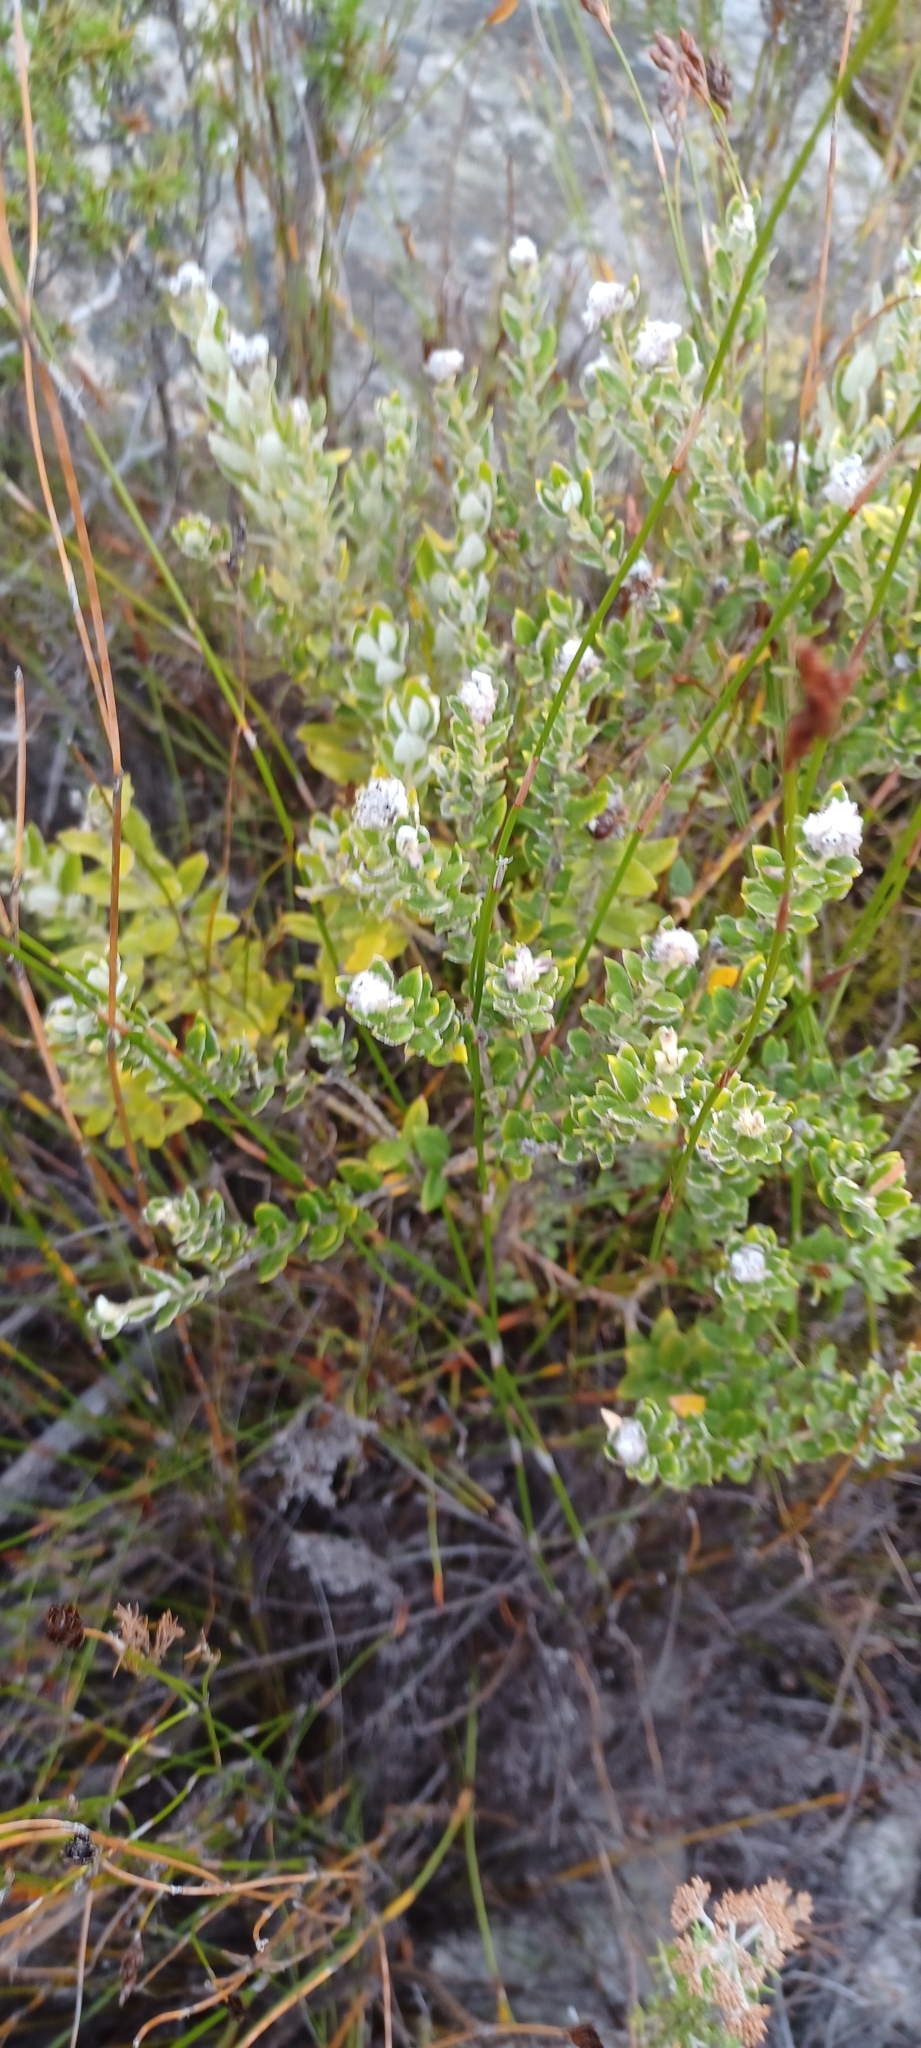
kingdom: Plantae
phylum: Tracheophyta
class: Magnoliopsida
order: Rosales
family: Rhamnaceae
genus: Phylica
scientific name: Phylica nervosa
